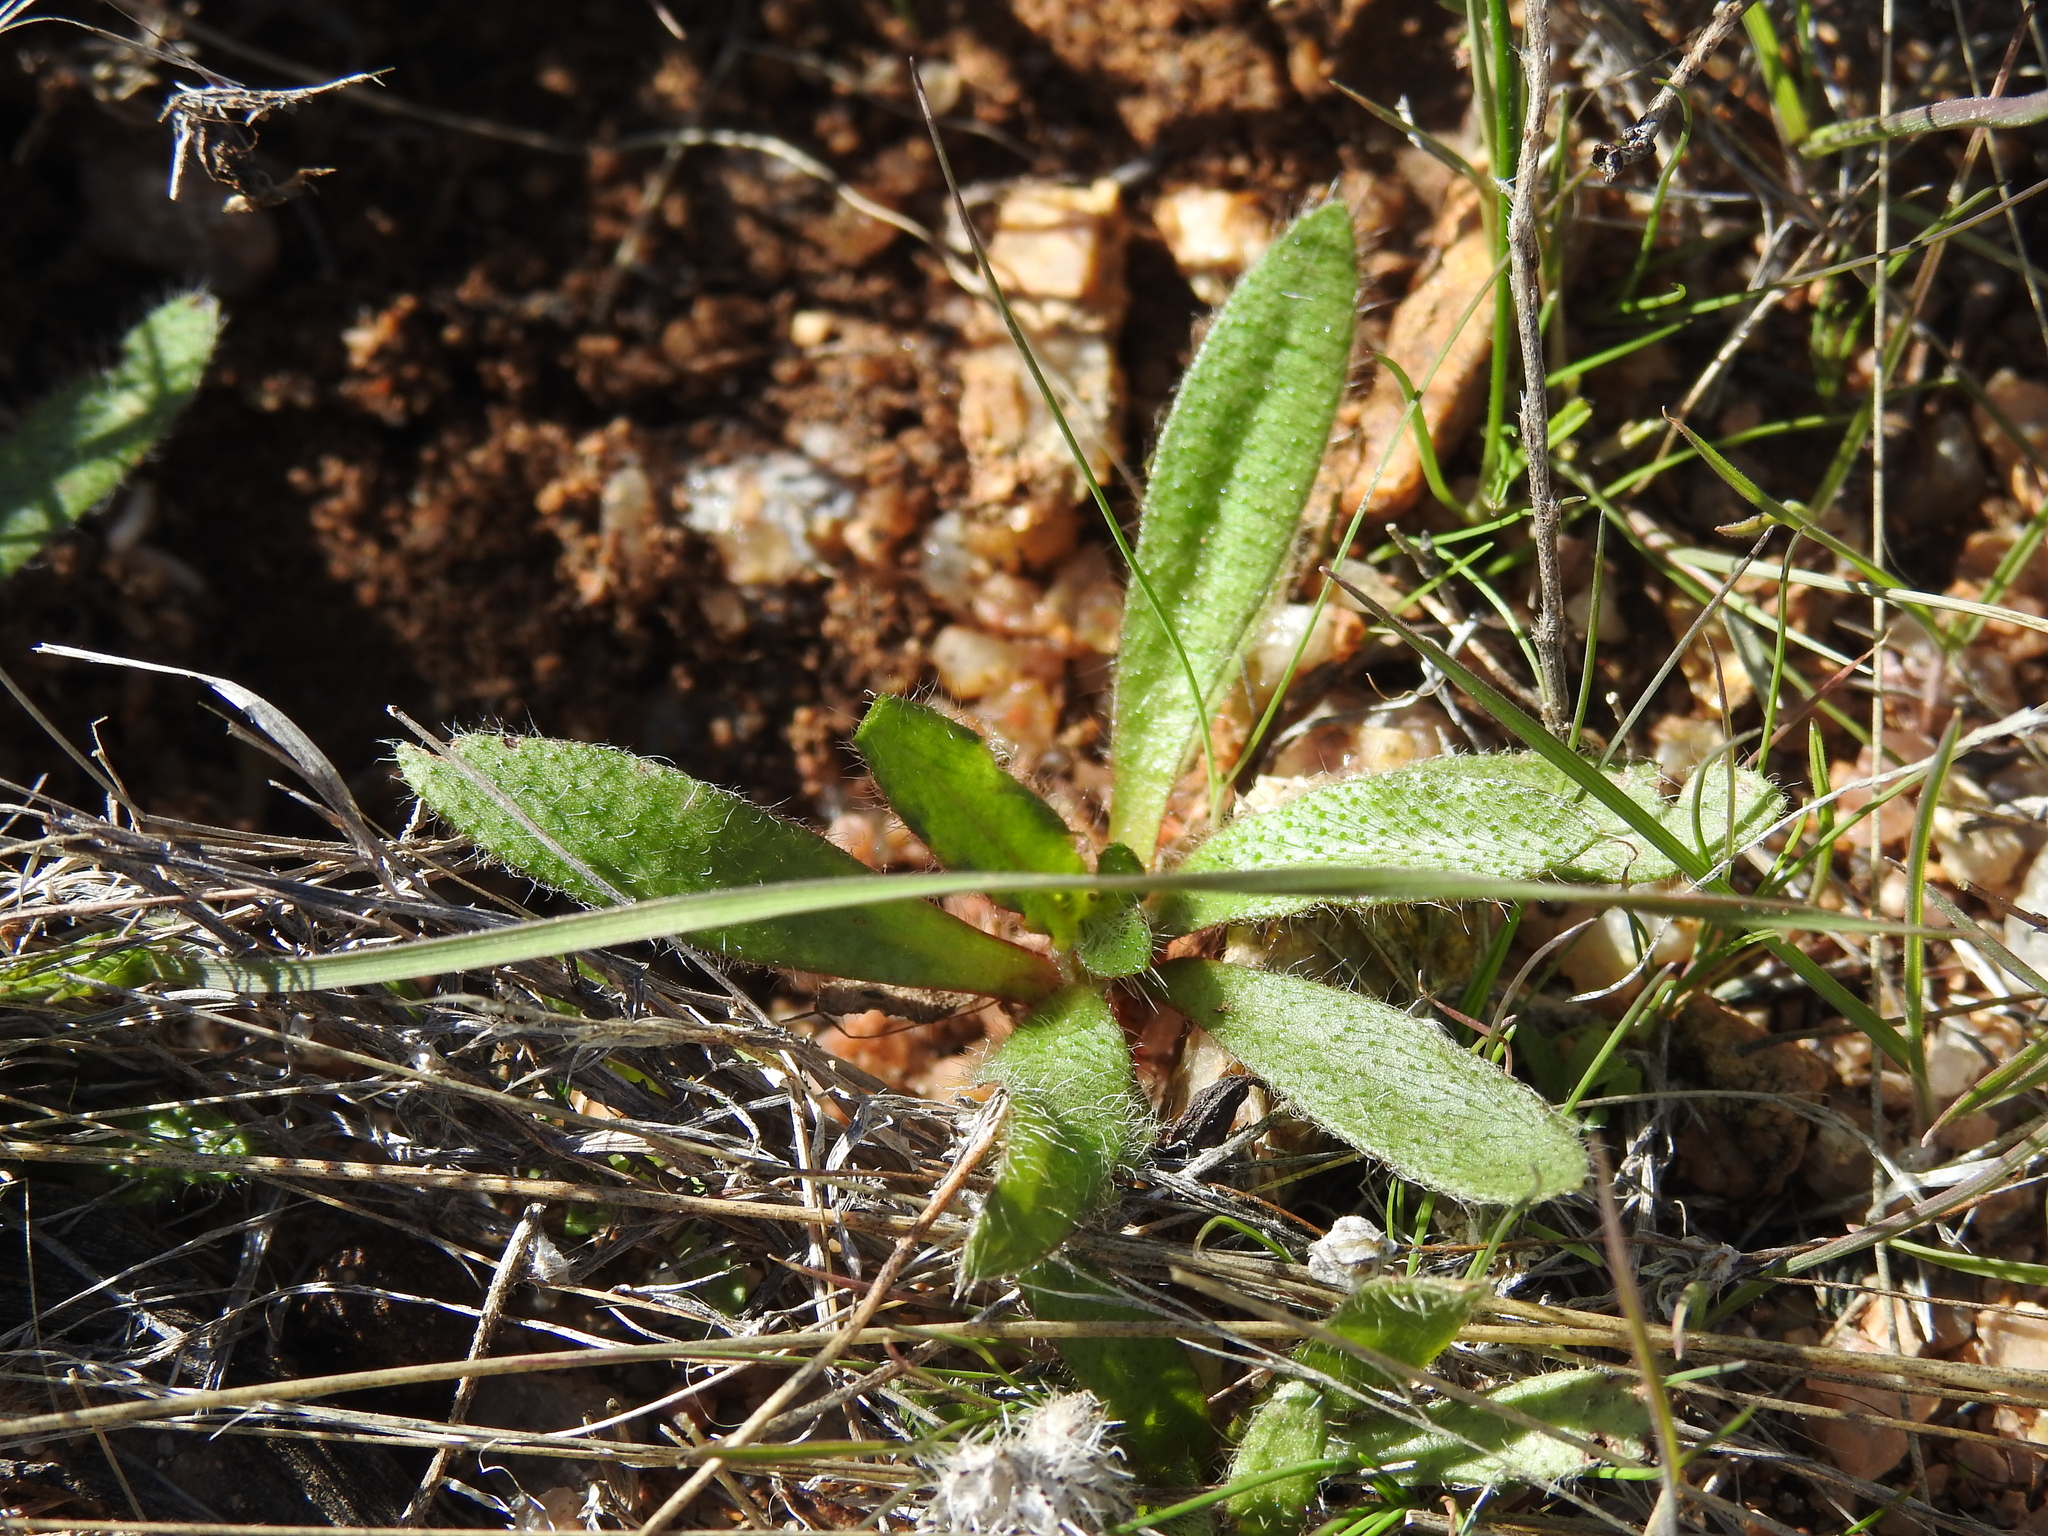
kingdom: Plantae
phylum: Tracheophyta
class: Magnoliopsida
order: Boraginales
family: Boraginaceae
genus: Plagiobothrys
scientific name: Plagiobothrys arizonicus
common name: Arizona popcorn-flower
